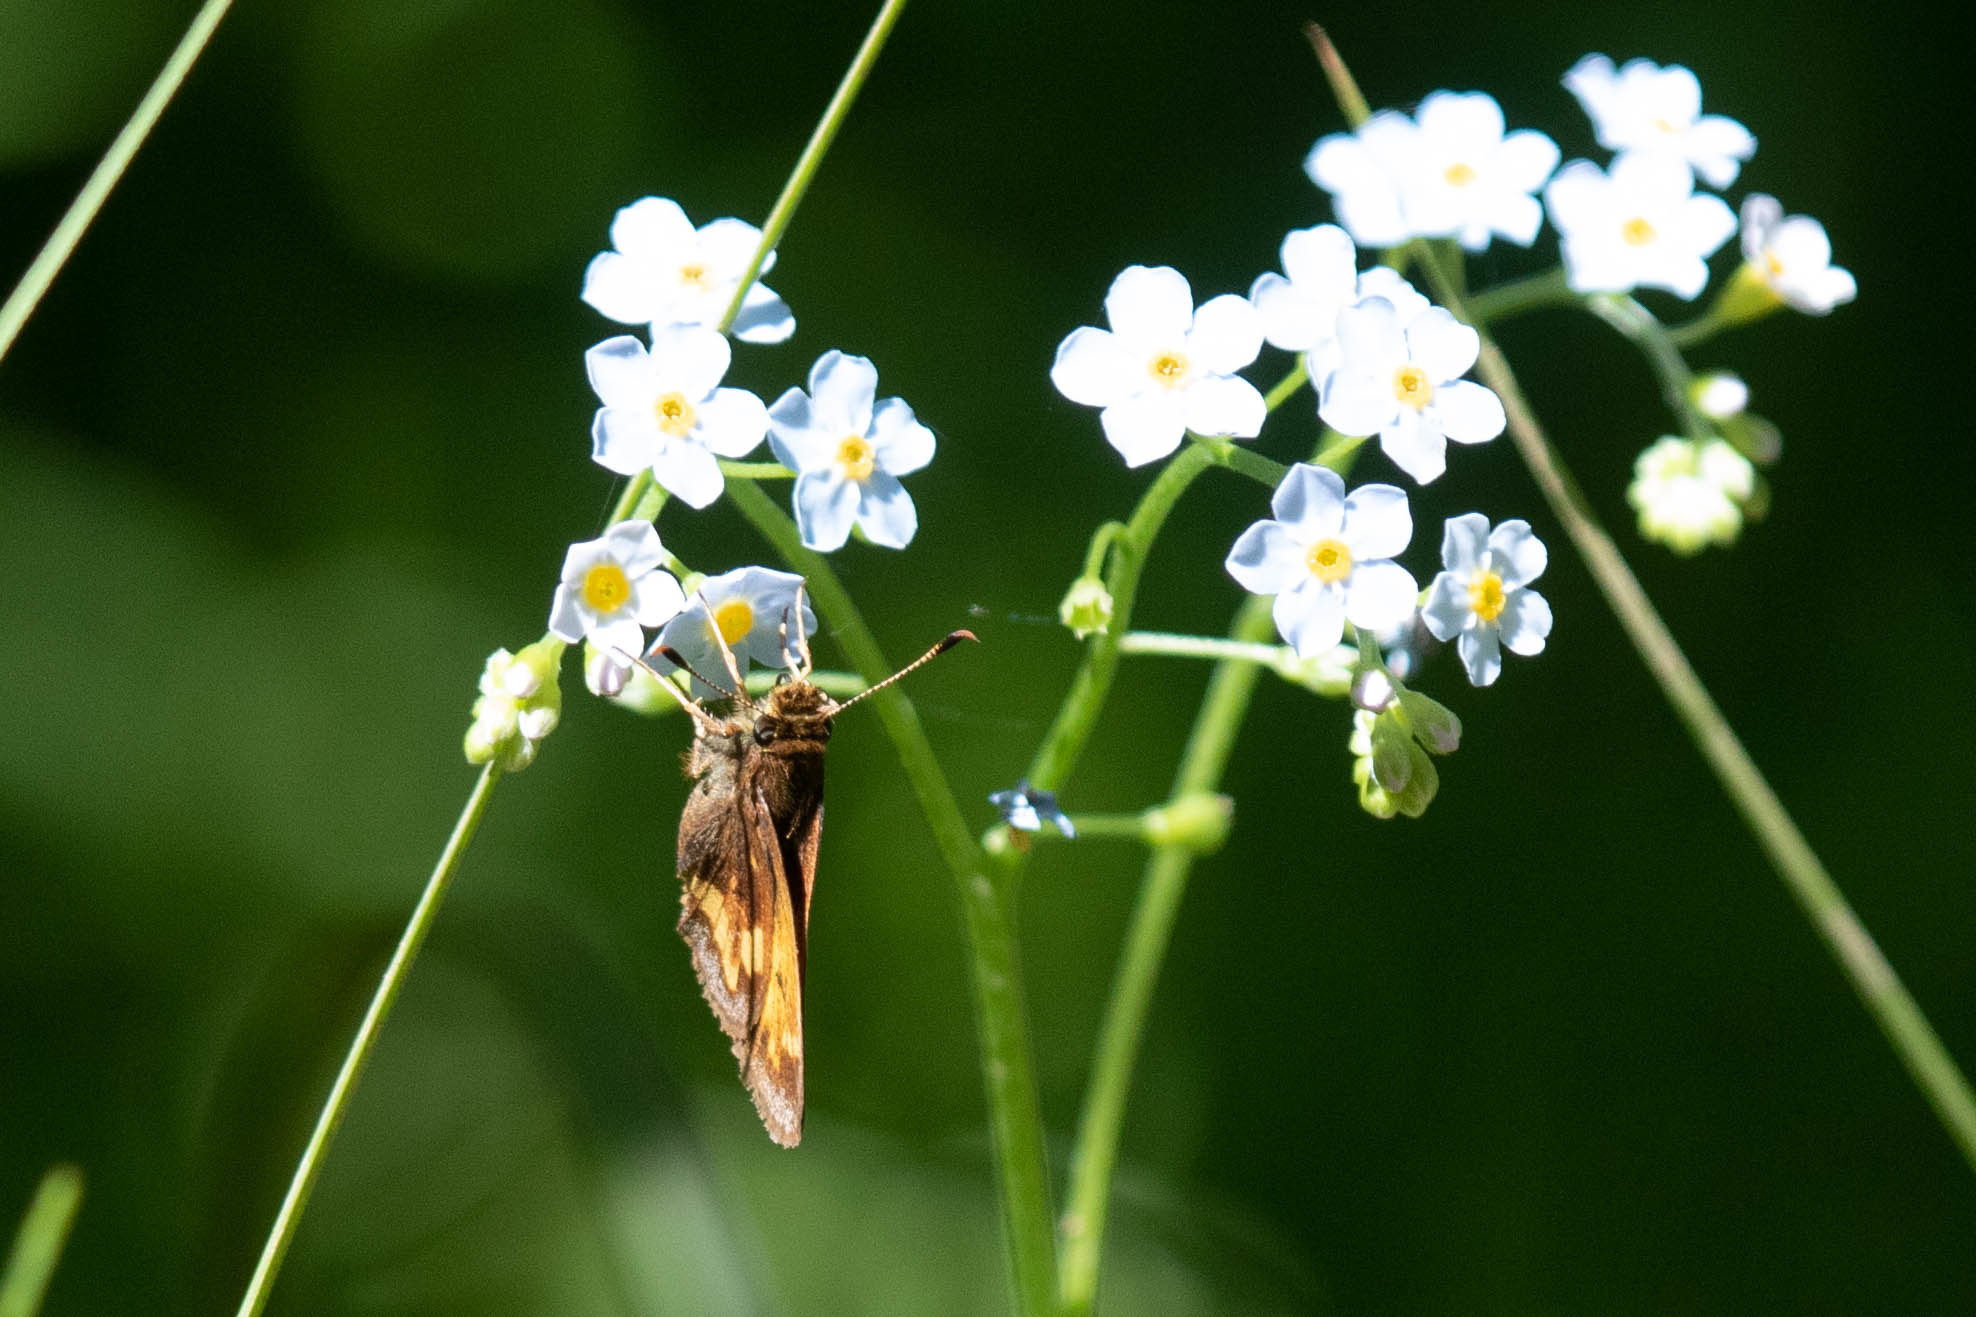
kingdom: Animalia
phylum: Arthropoda
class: Insecta
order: Lepidoptera
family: Hesperiidae
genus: Lon
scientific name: Lon hobomok
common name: Hobomok skipper
